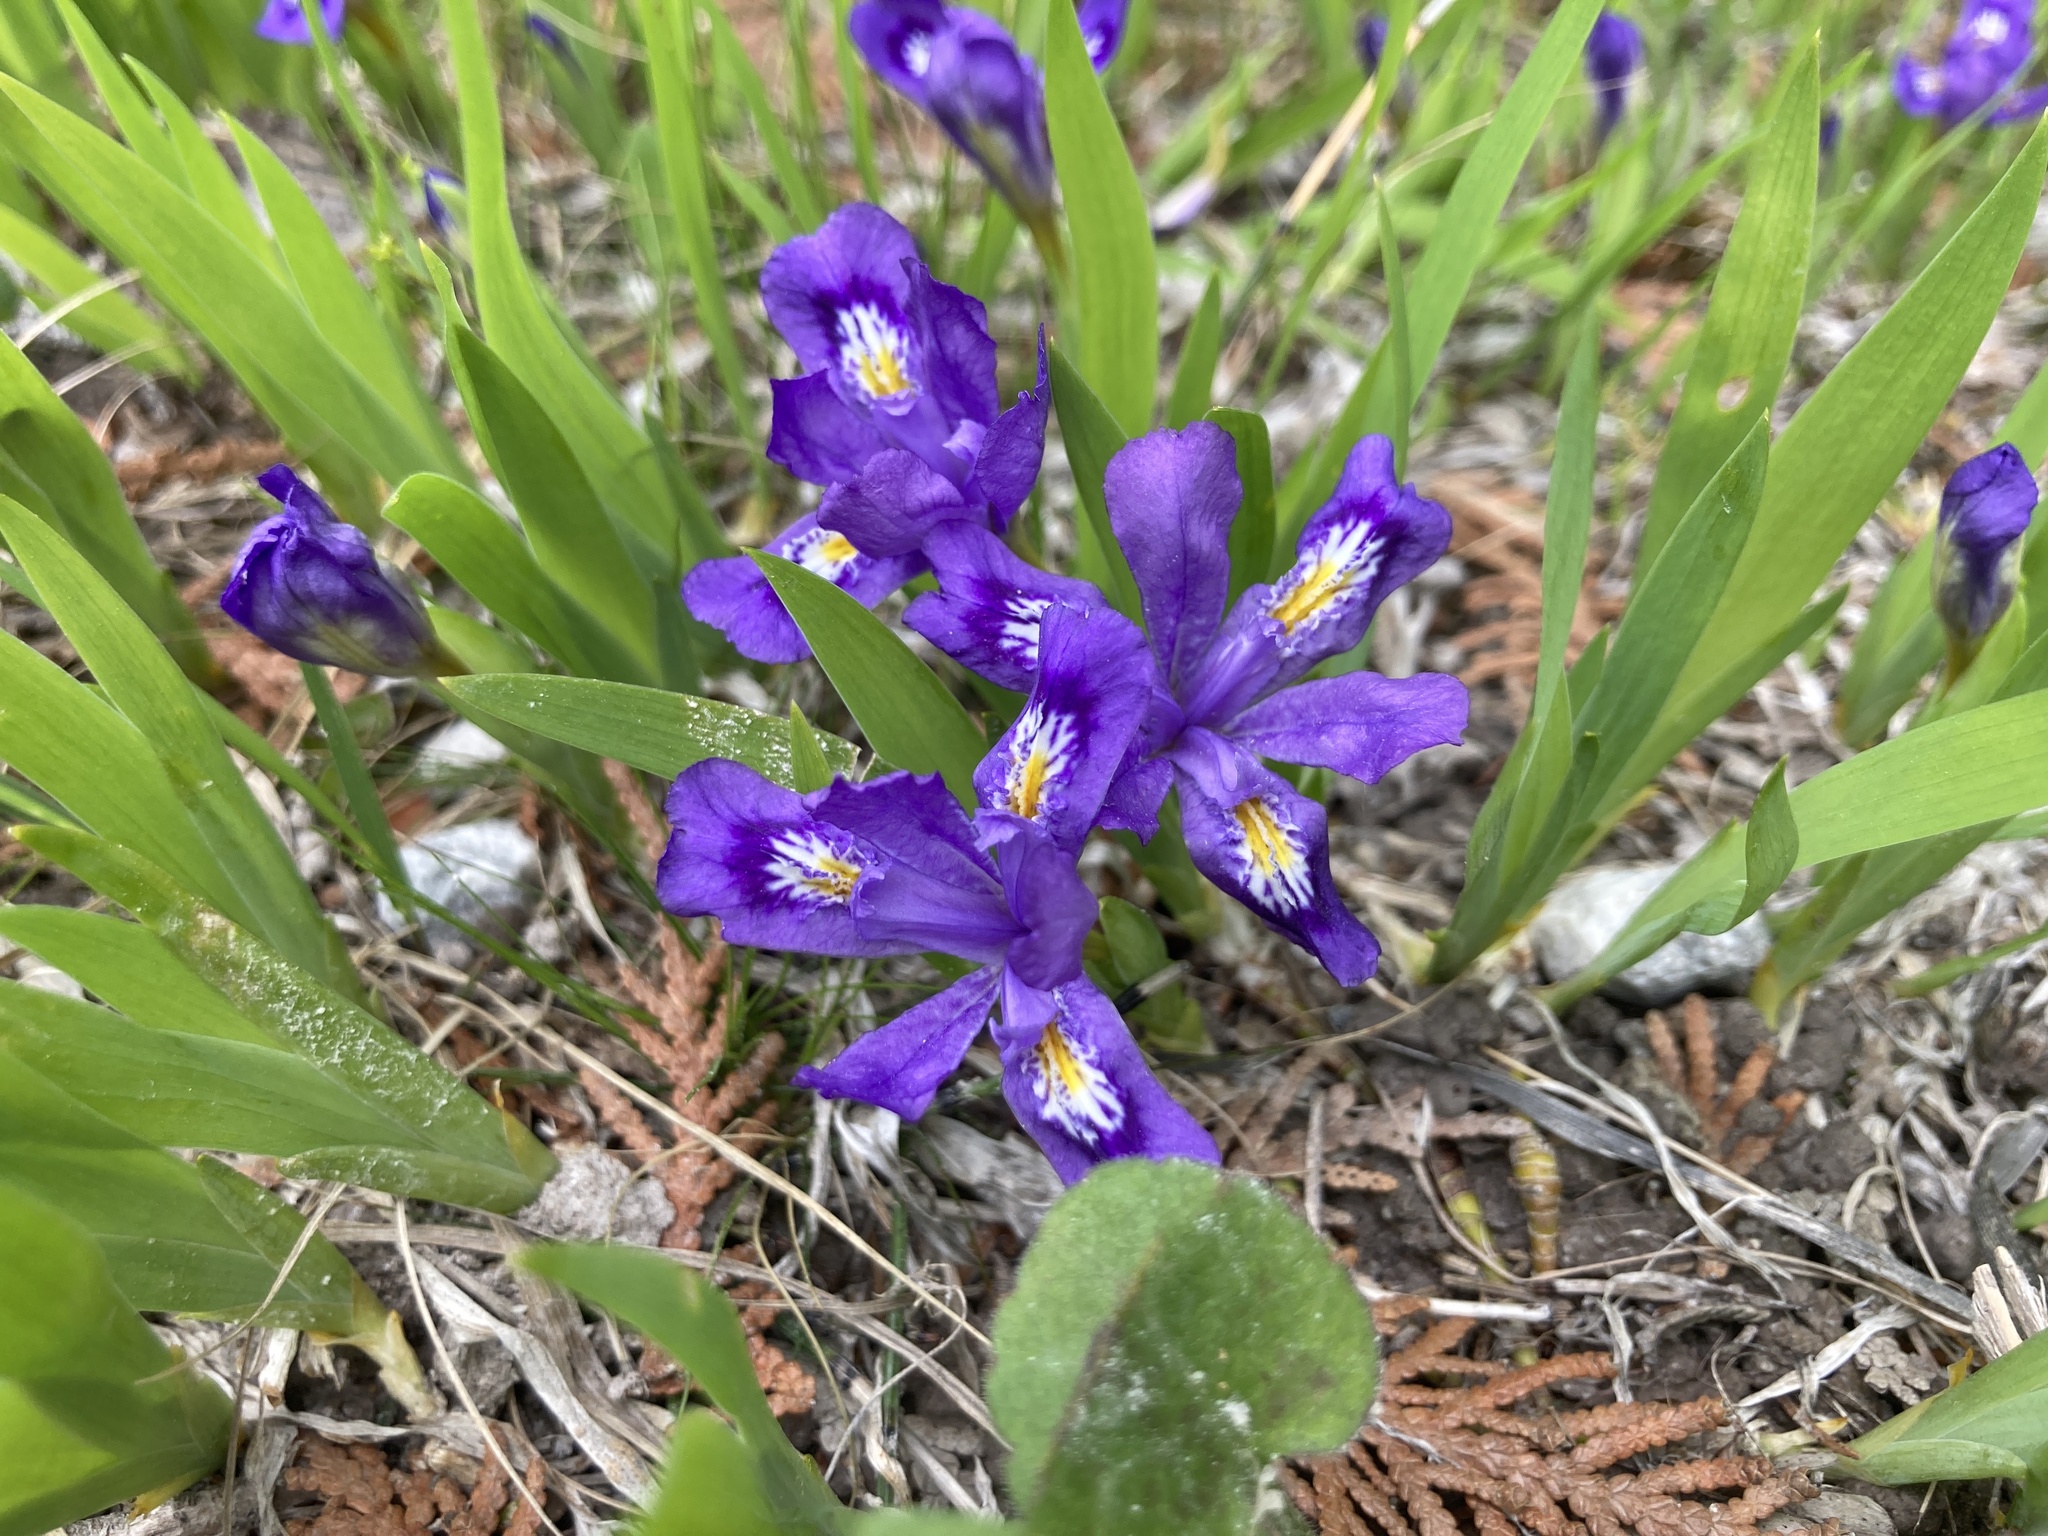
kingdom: Plantae
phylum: Tracheophyta
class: Liliopsida
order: Asparagales
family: Iridaceae
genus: Iris
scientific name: Iris lacustris
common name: Dwarf lake iris
